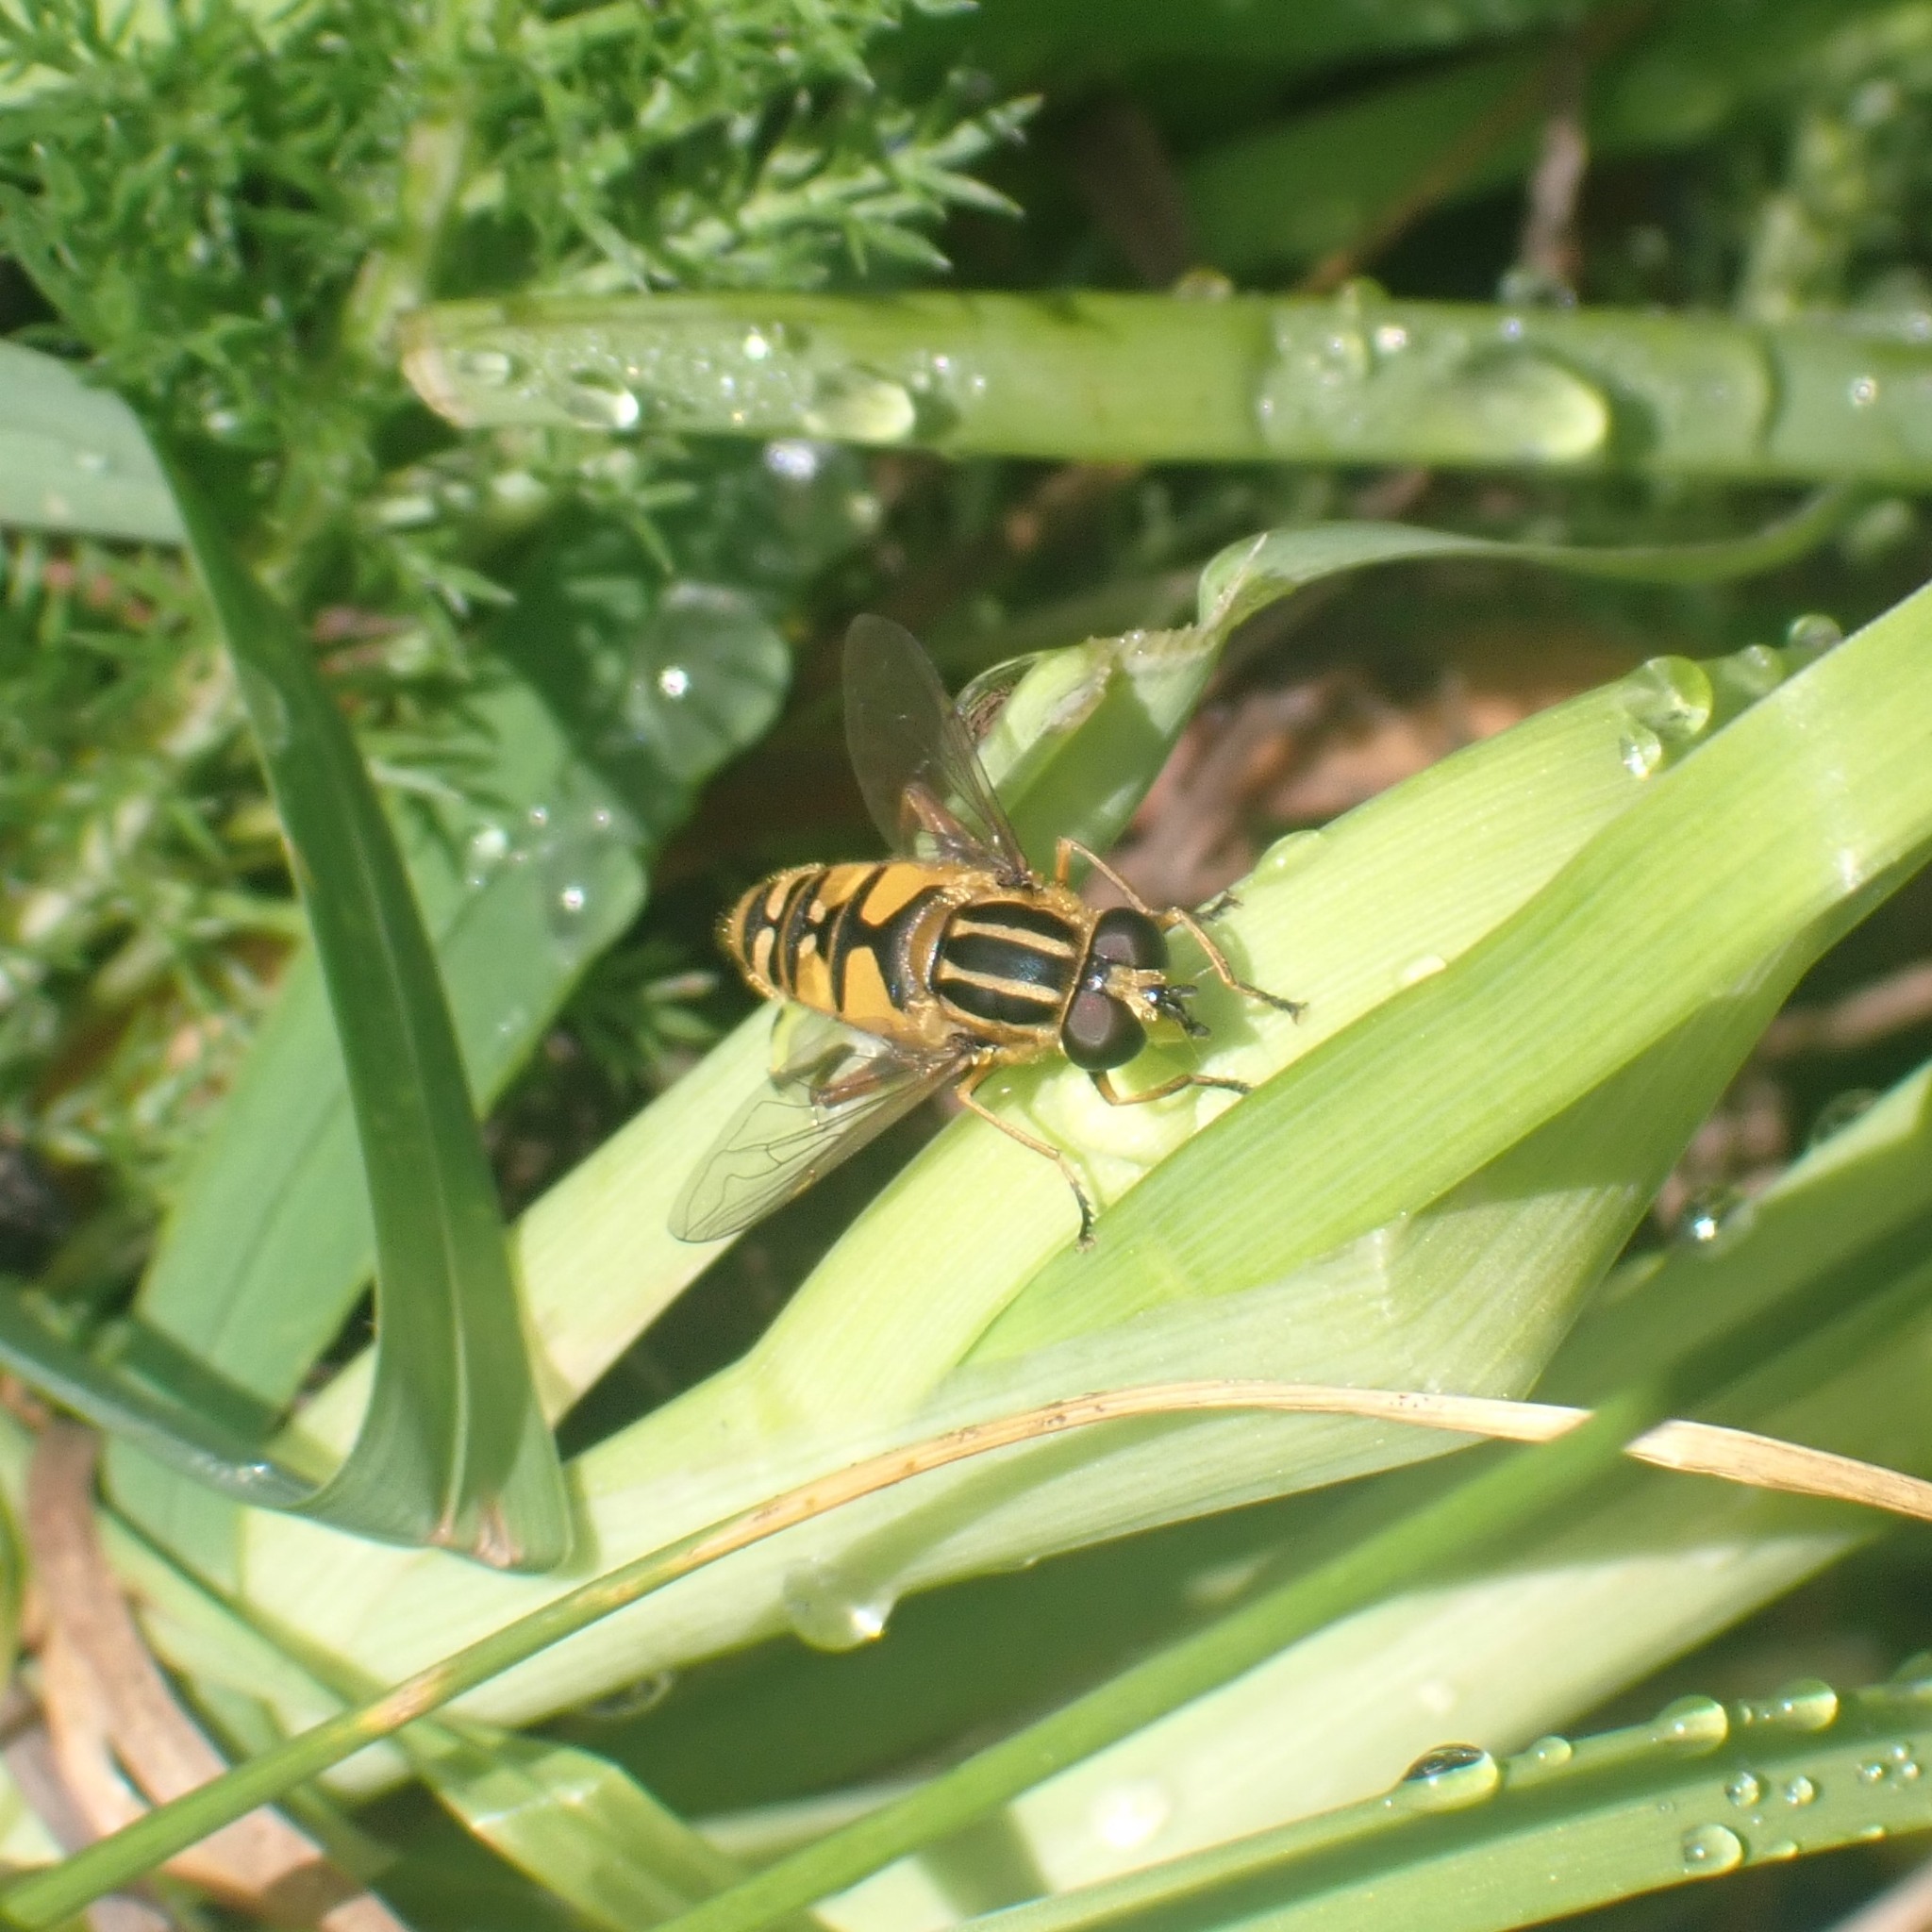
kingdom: Animalia
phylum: Arthropoda
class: Insecta
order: Diptera
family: Syrphidae
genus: Helophilus
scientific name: Helophilus pendulus
